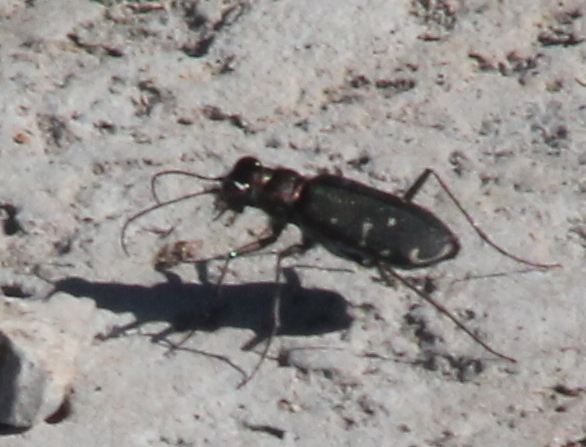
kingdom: Animalia
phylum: Arthropoda
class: Insecta
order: Coleoptera
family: Carabidae
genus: Cicindela
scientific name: Cicindela punctulata
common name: Punctured tiger beetle
